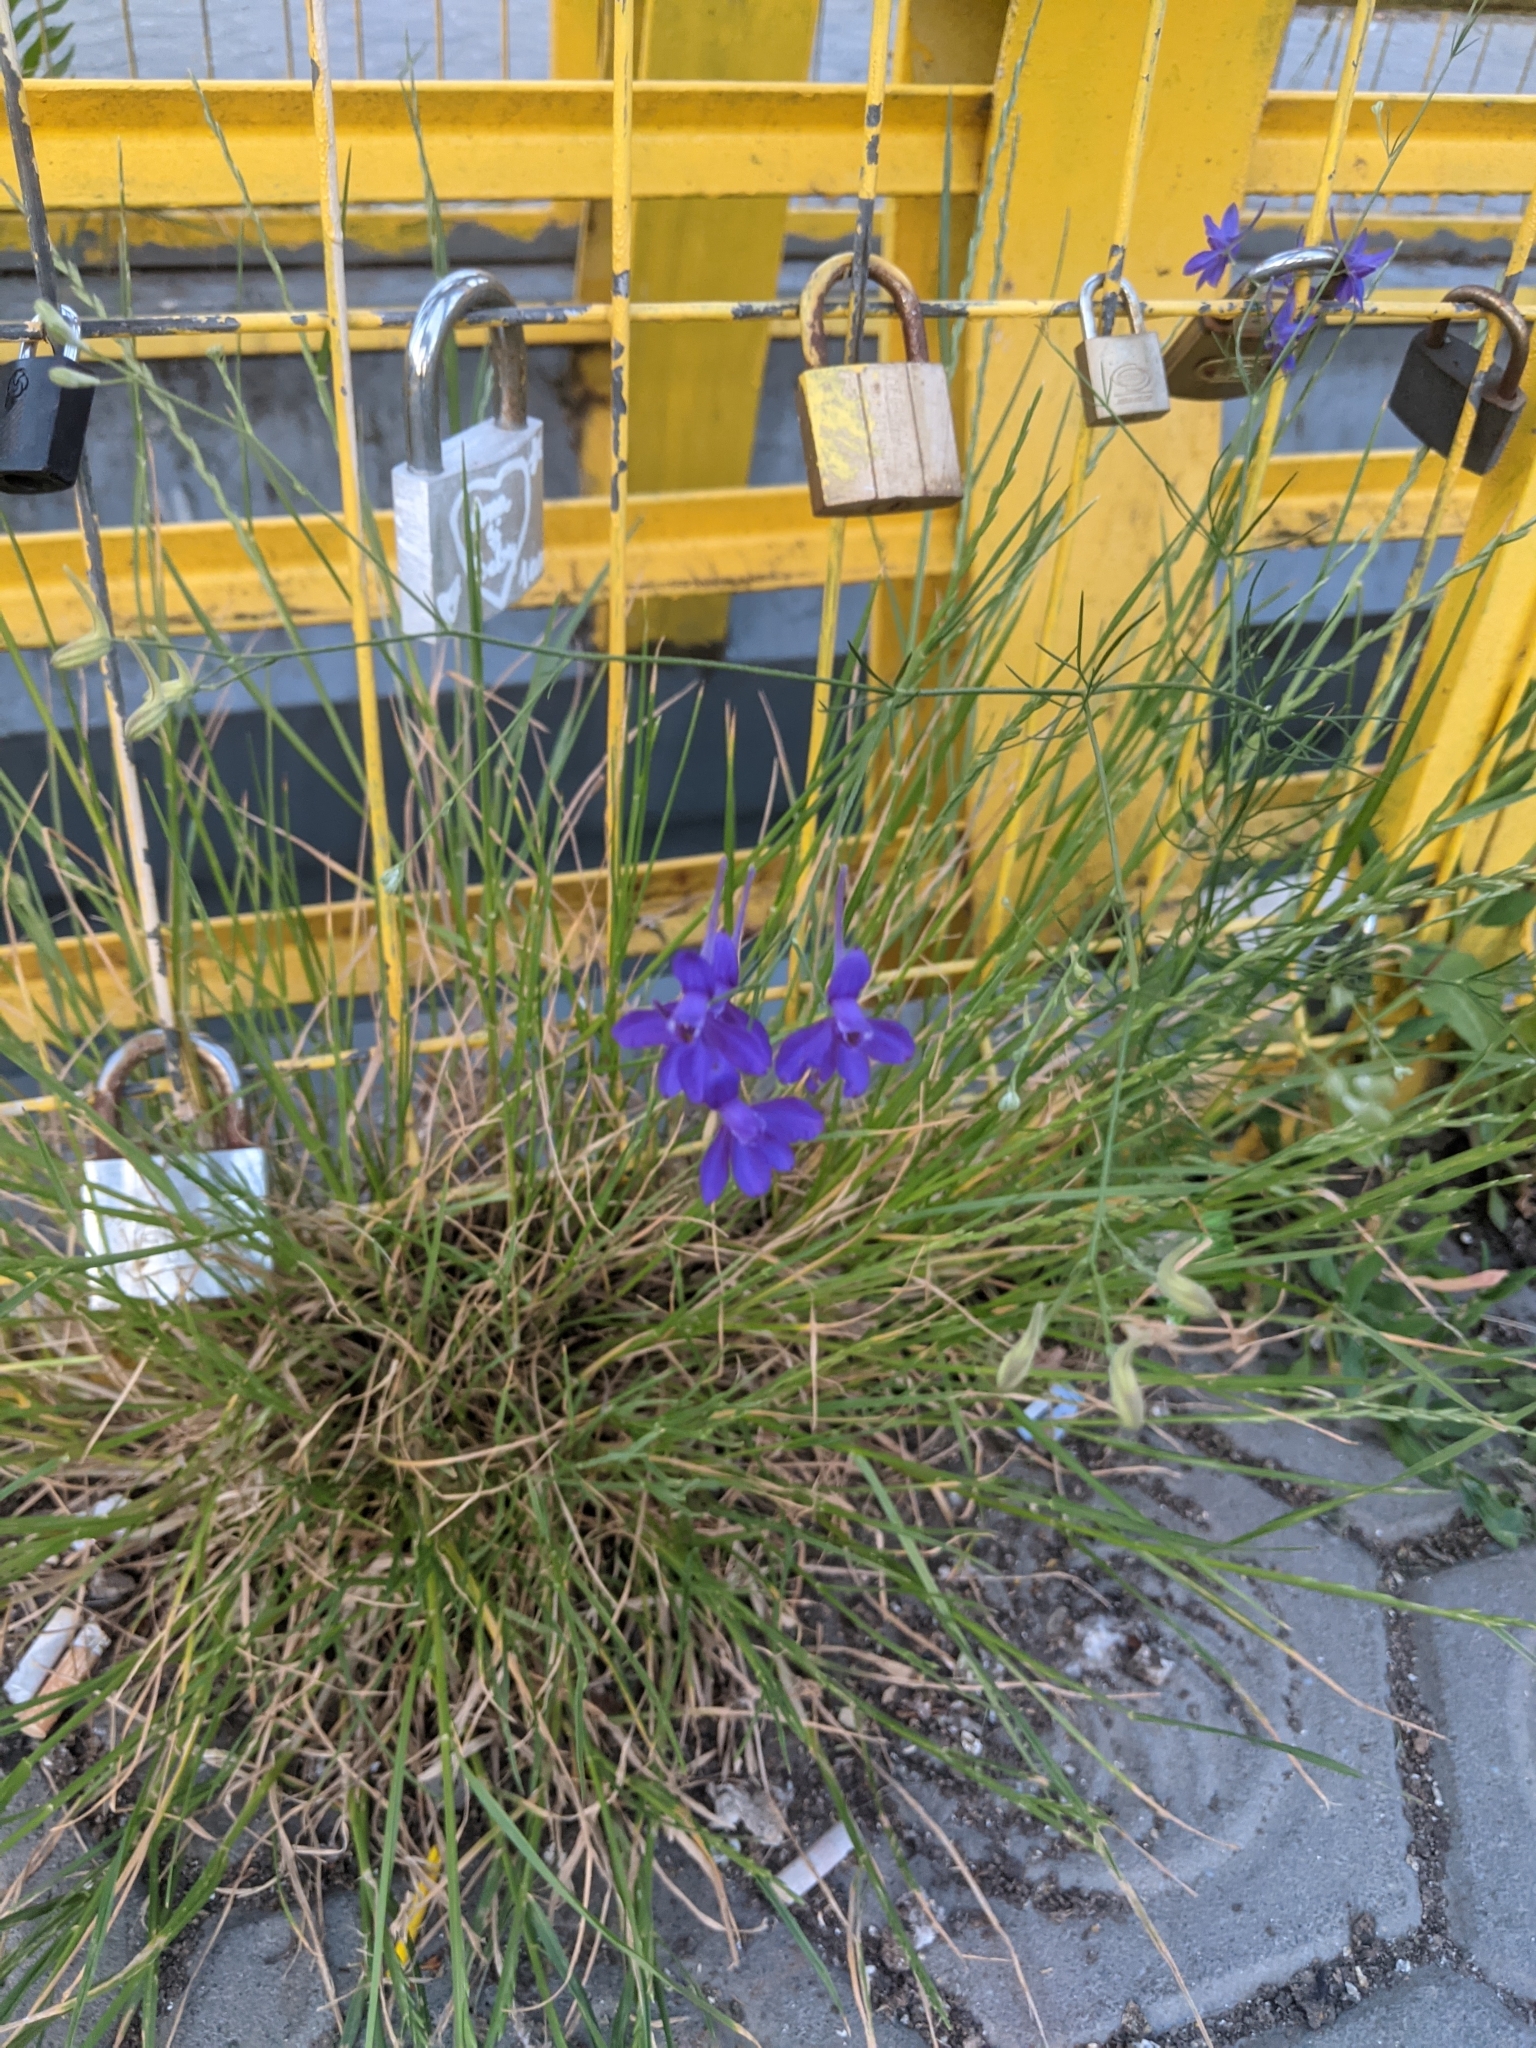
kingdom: Plantae
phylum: Tracheophyta
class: Magnoliopsida
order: Ranunculales
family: Ranunculaceae
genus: Delphinium
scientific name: Delphinium consolida
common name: Branching larkspur
